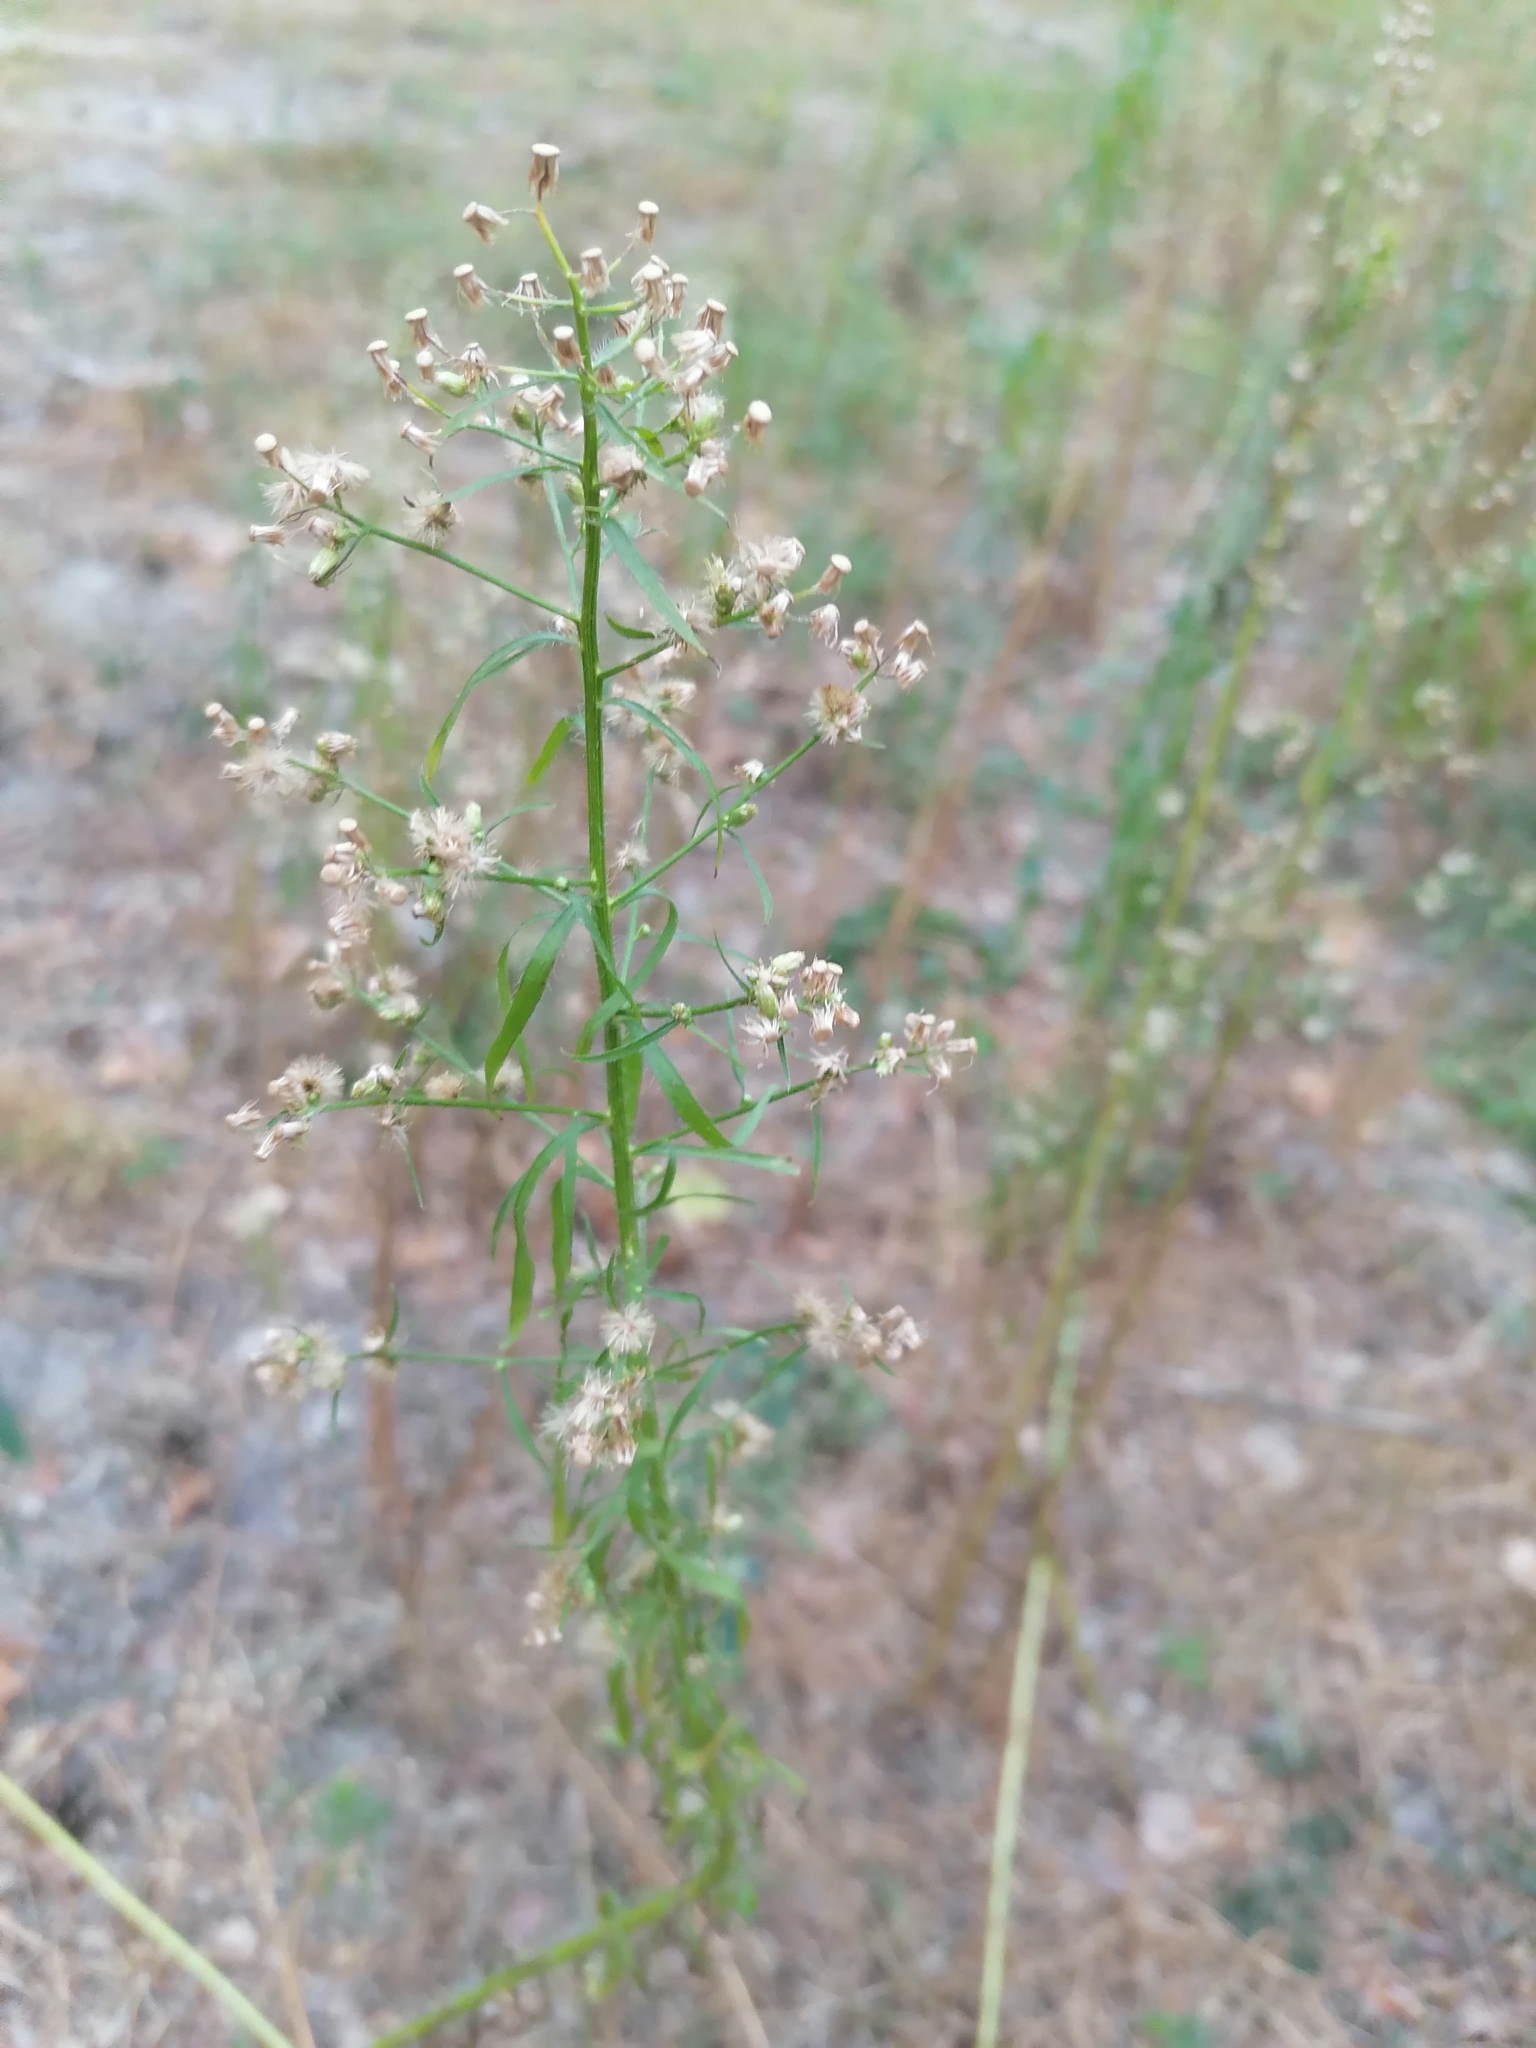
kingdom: Plantae
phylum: Tracheophyta
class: Magnoliopsida
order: Asterales
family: Asteraceae
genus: Erigeron
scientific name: Erigeron canadensis
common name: Canadian fleabane
